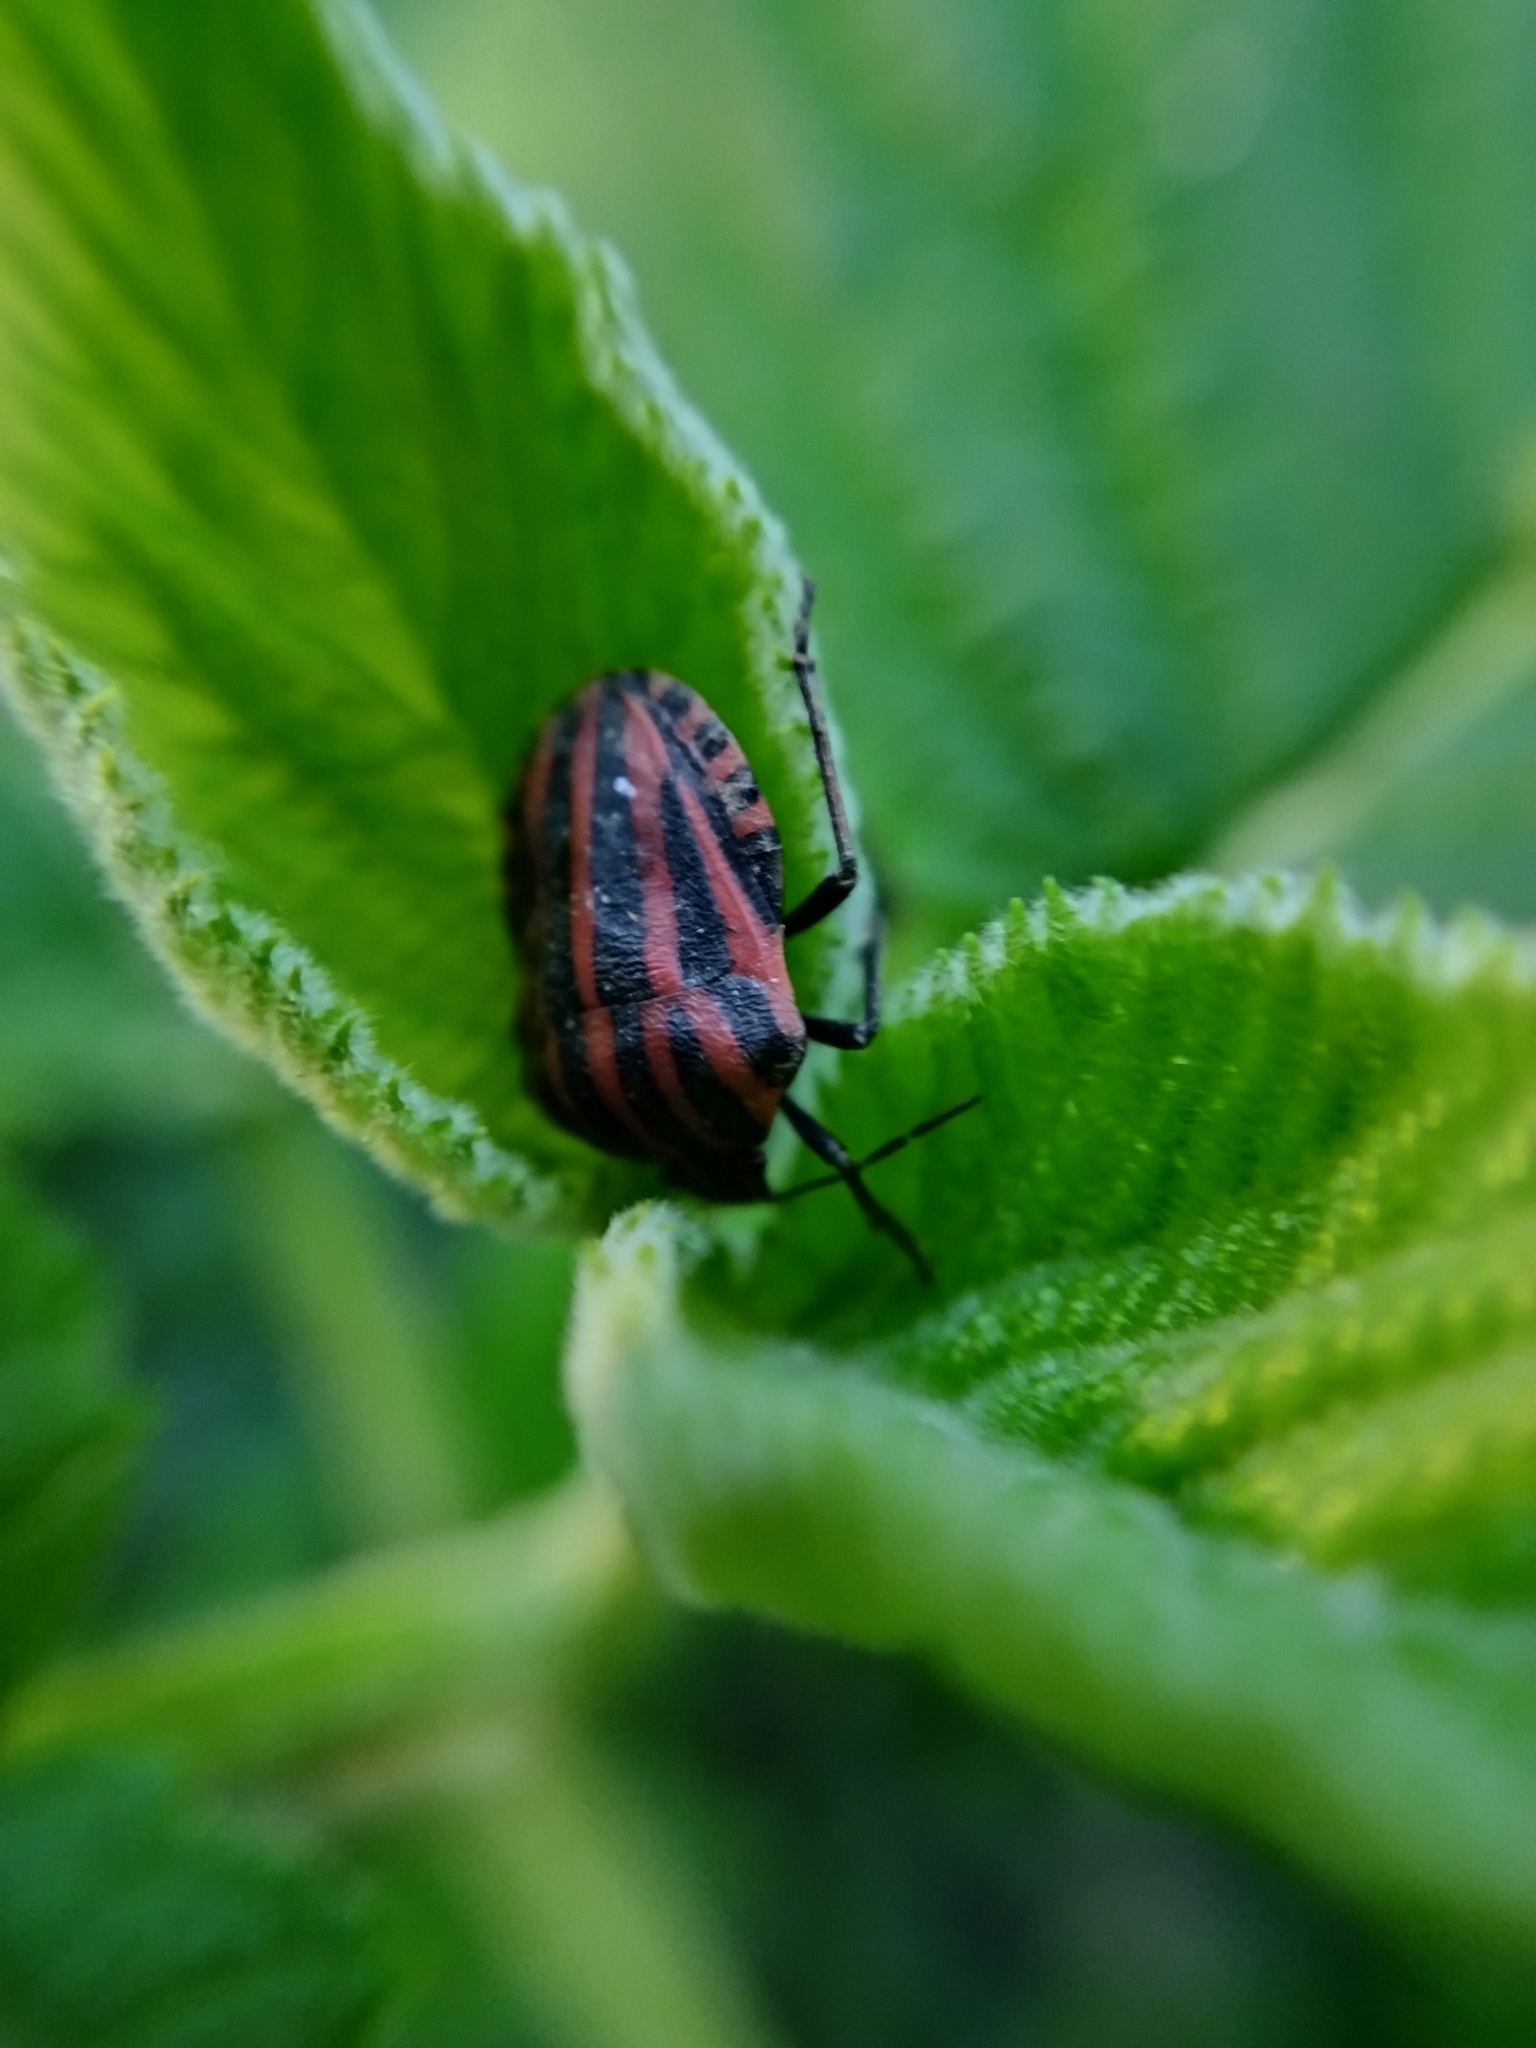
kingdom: Animalia
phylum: Arthropoda
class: Insecta
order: Hemiptera
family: Pentatomidae
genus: Graphosoma
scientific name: Graphosoma italicum
